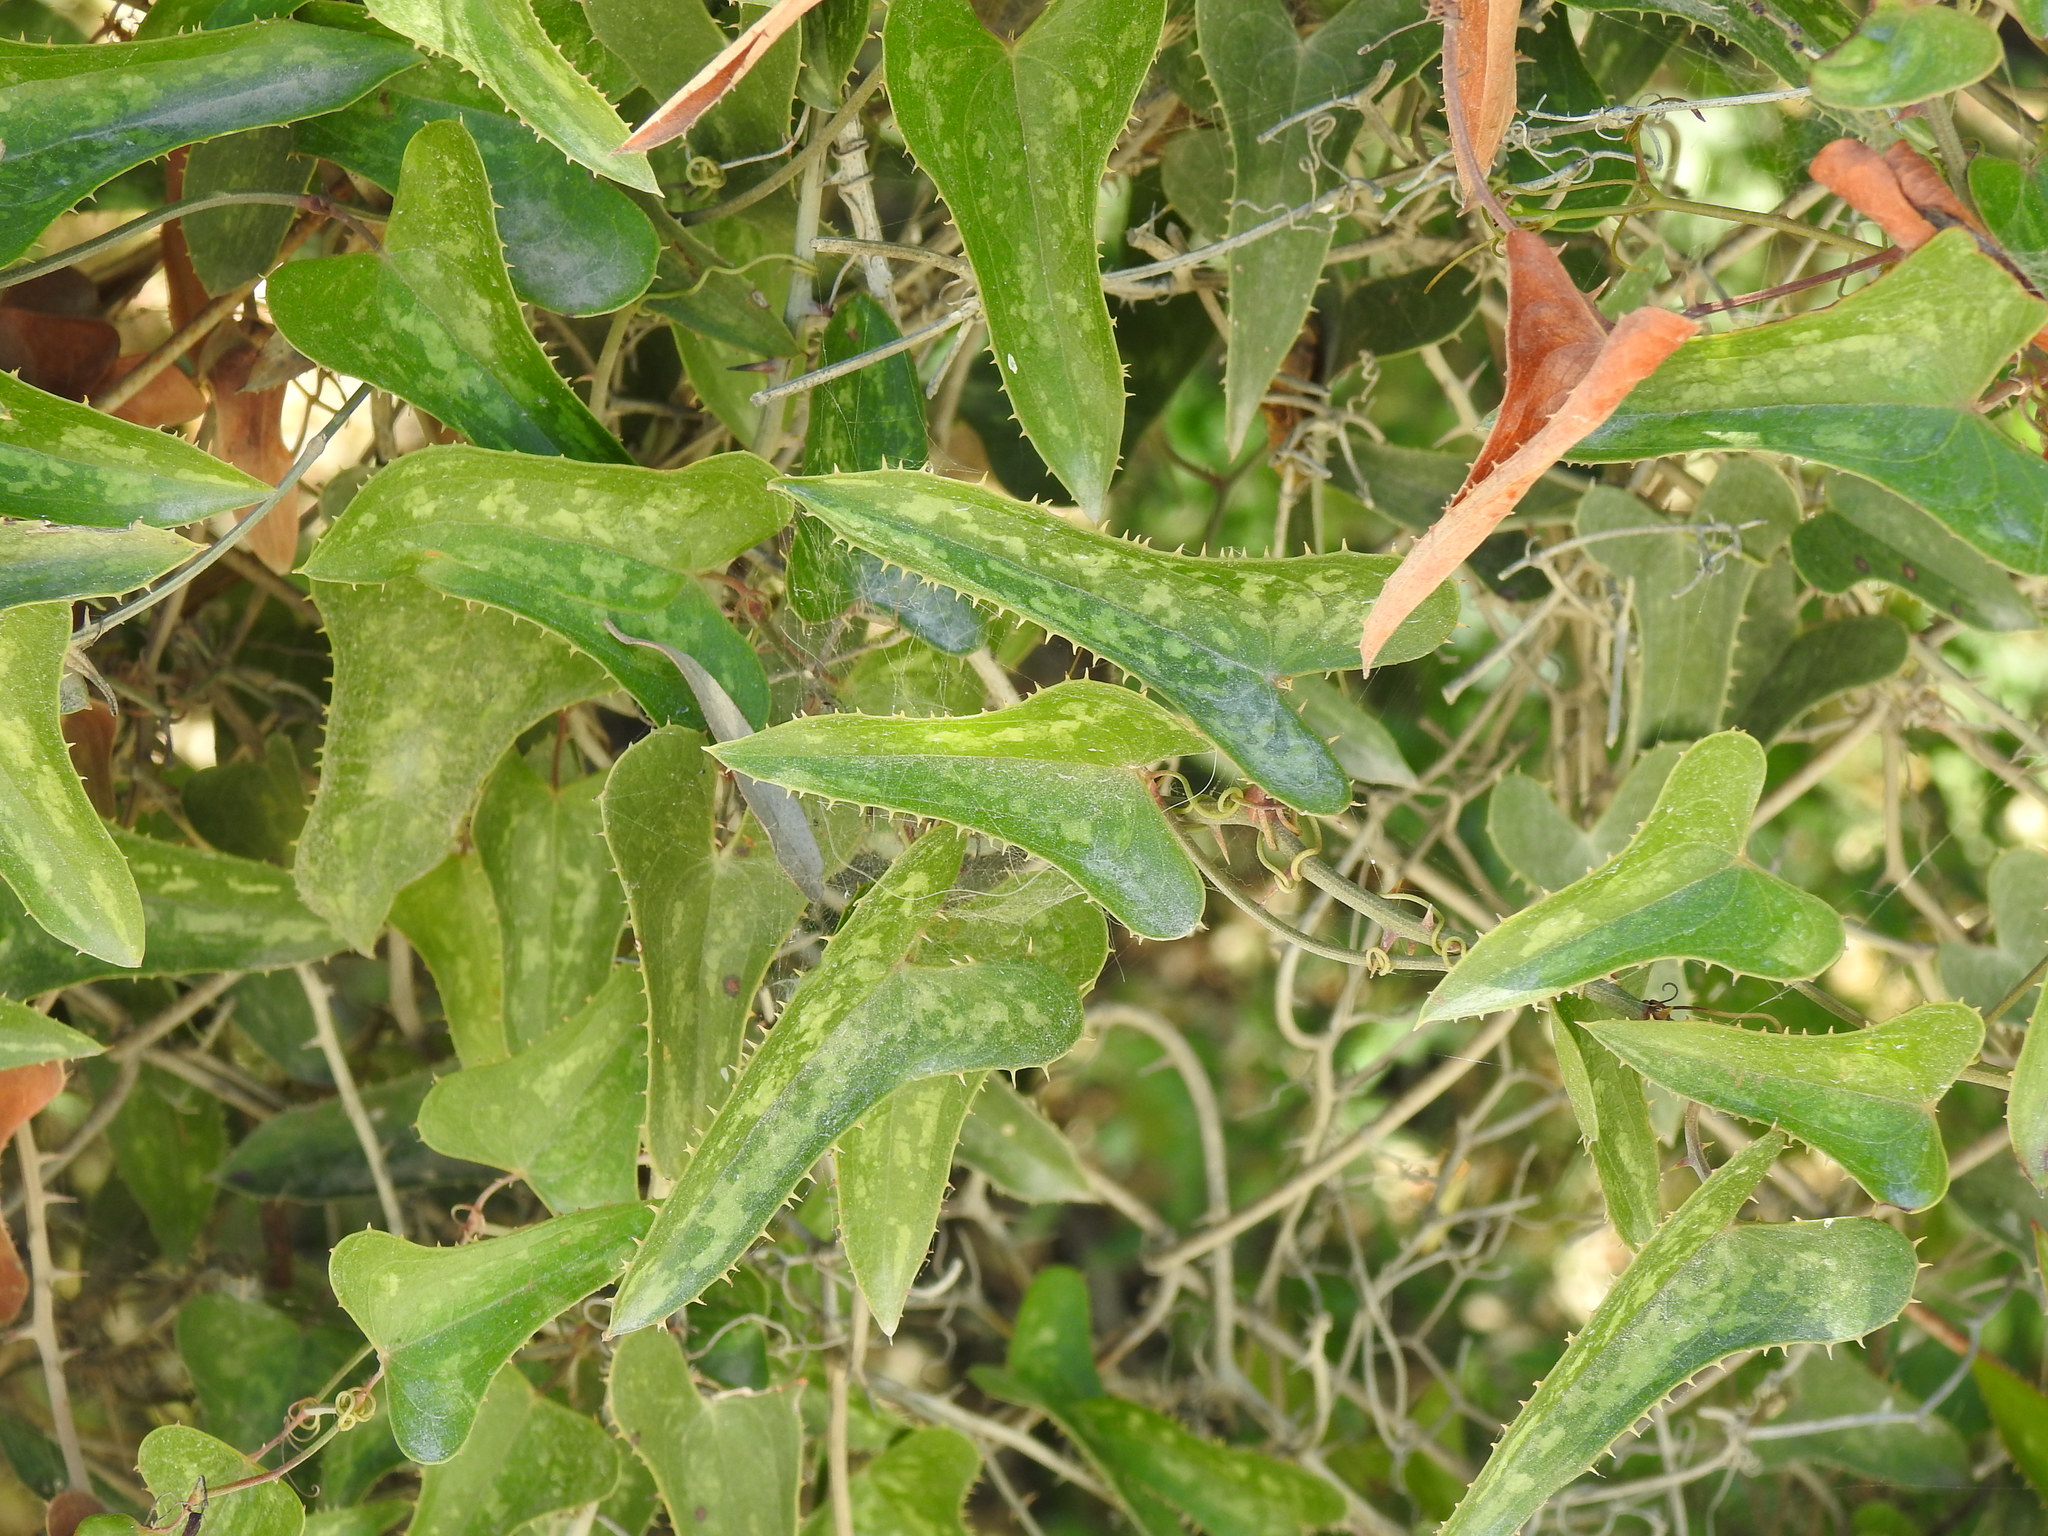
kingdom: Plantae
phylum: Tracheophyta
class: Liliopsida
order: Liliales
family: Smilacaceae
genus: Smilax
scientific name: Smilax aspera
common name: Common smilax
